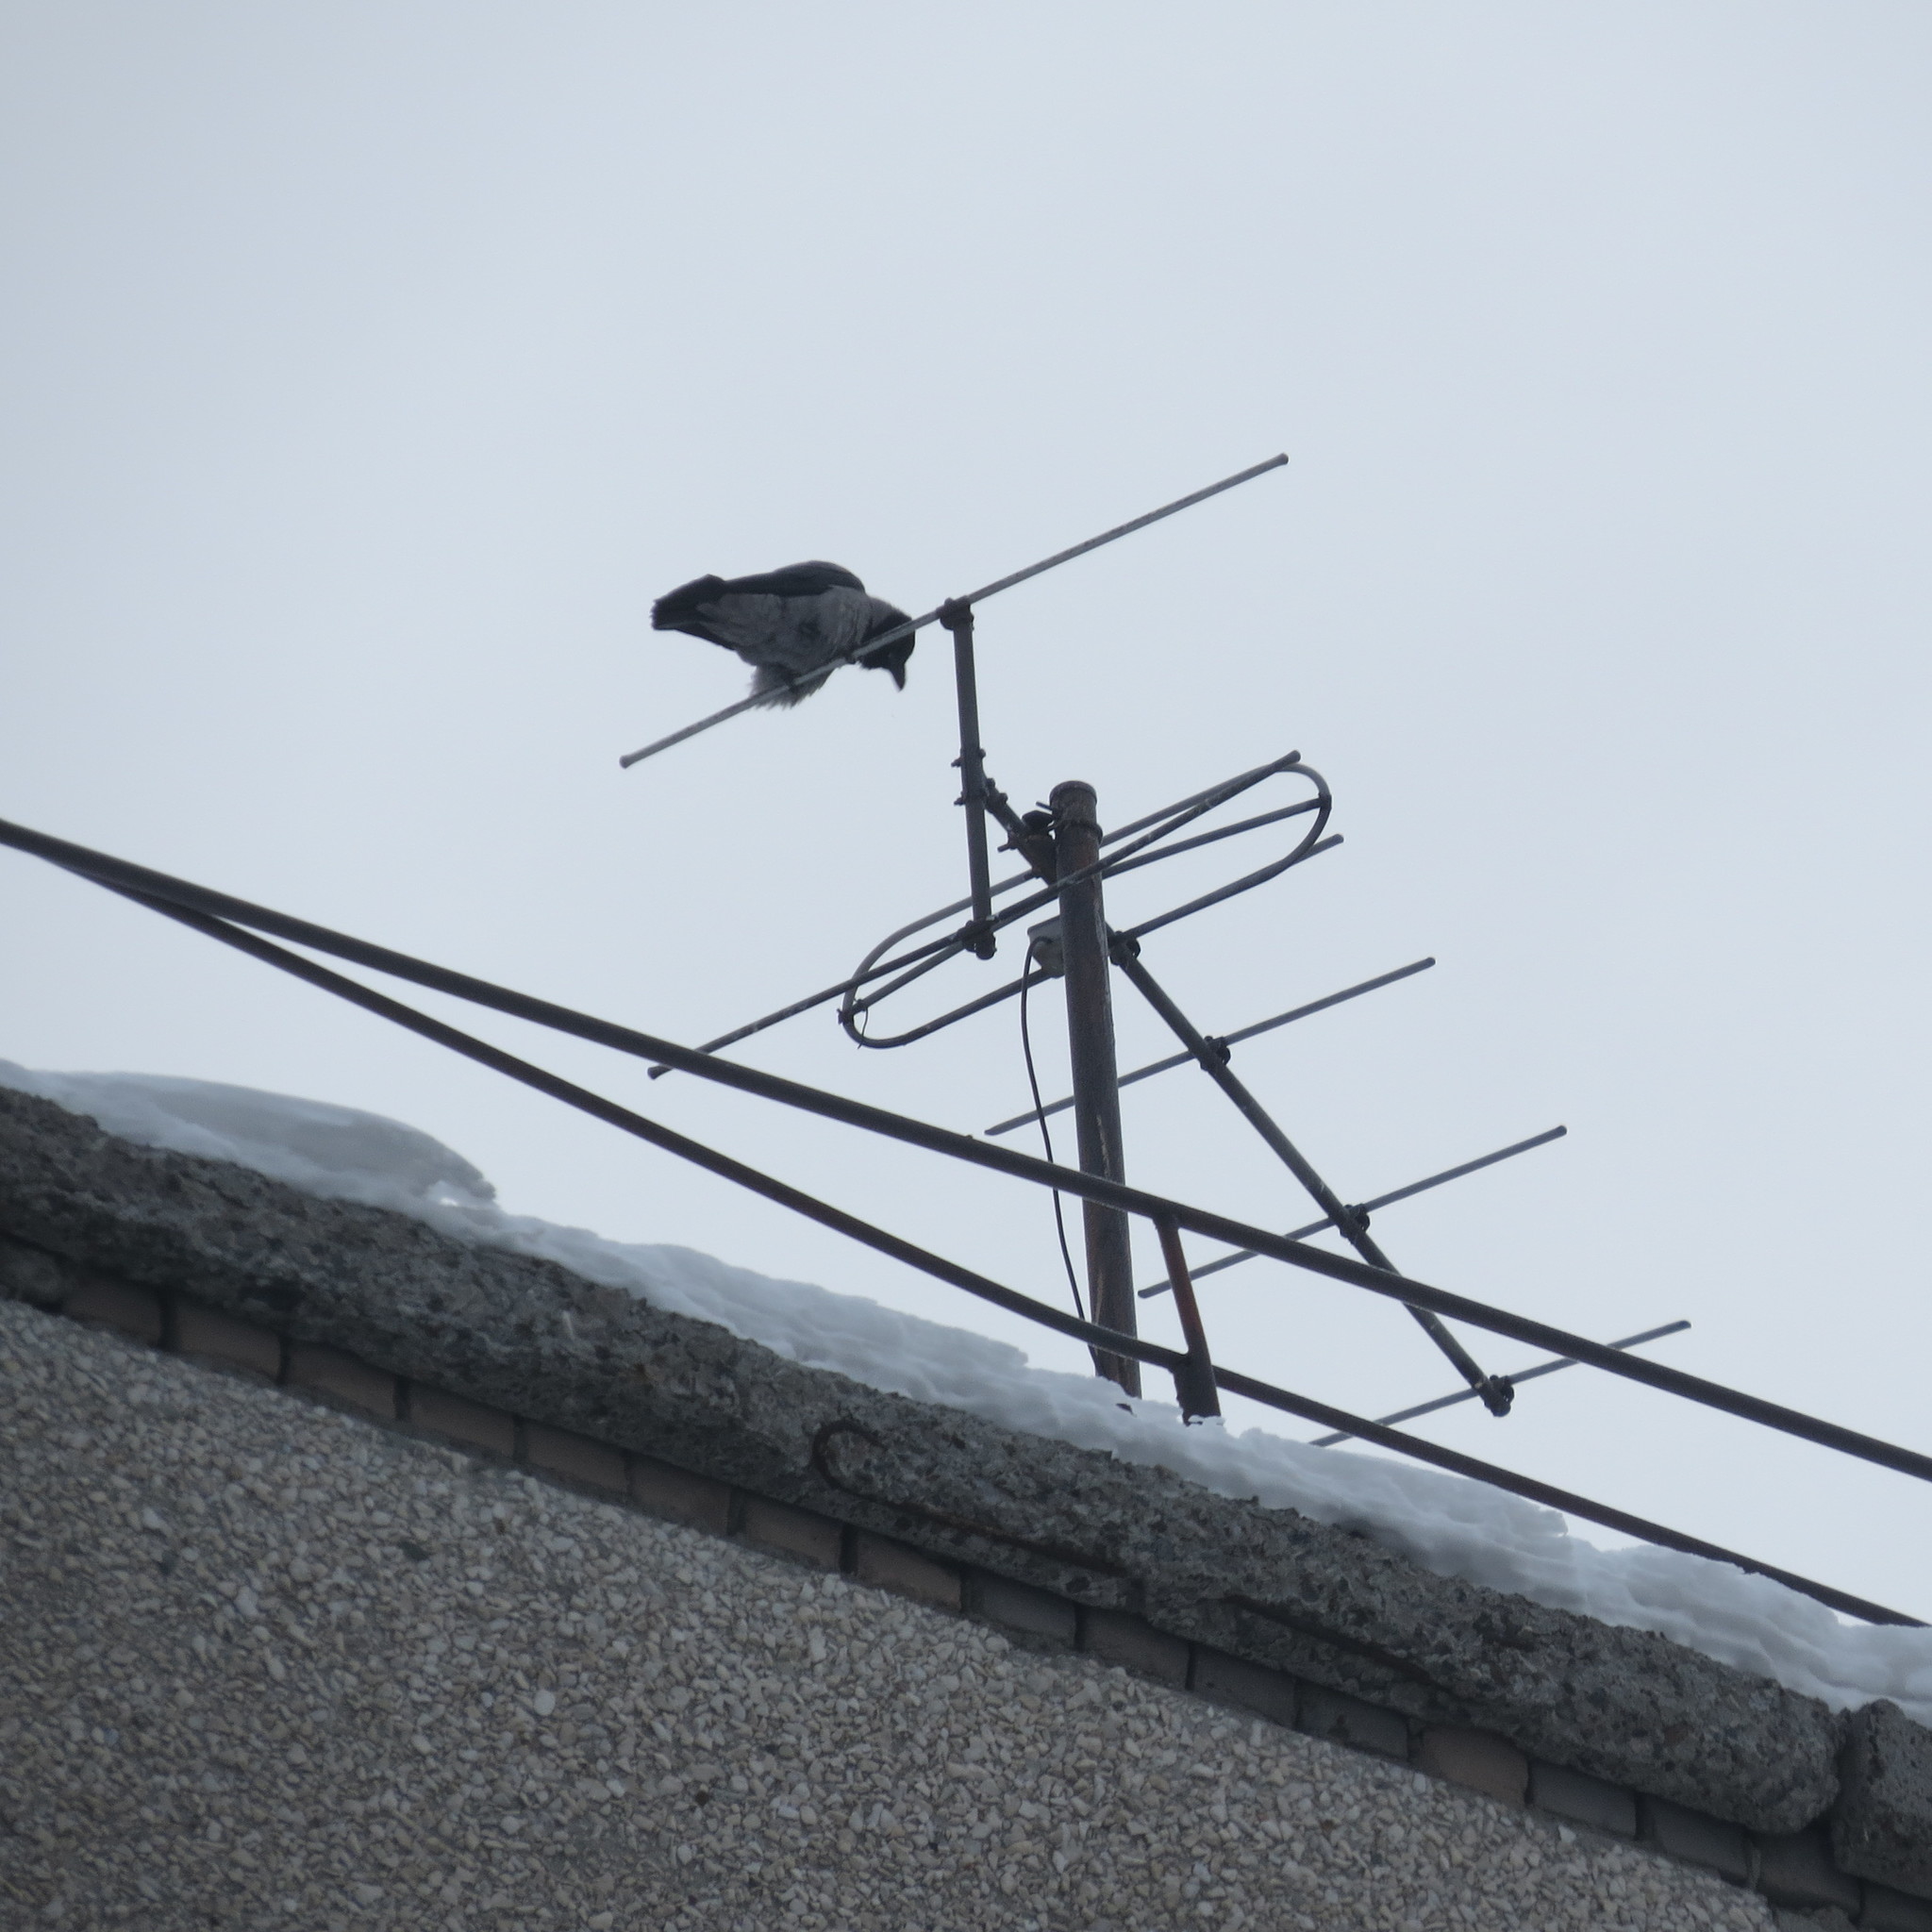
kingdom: Animalia
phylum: Chordata
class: Aves
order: Passeriformes
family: Corvidae
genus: Corvus
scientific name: Corvus cornix
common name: Hooded crow
